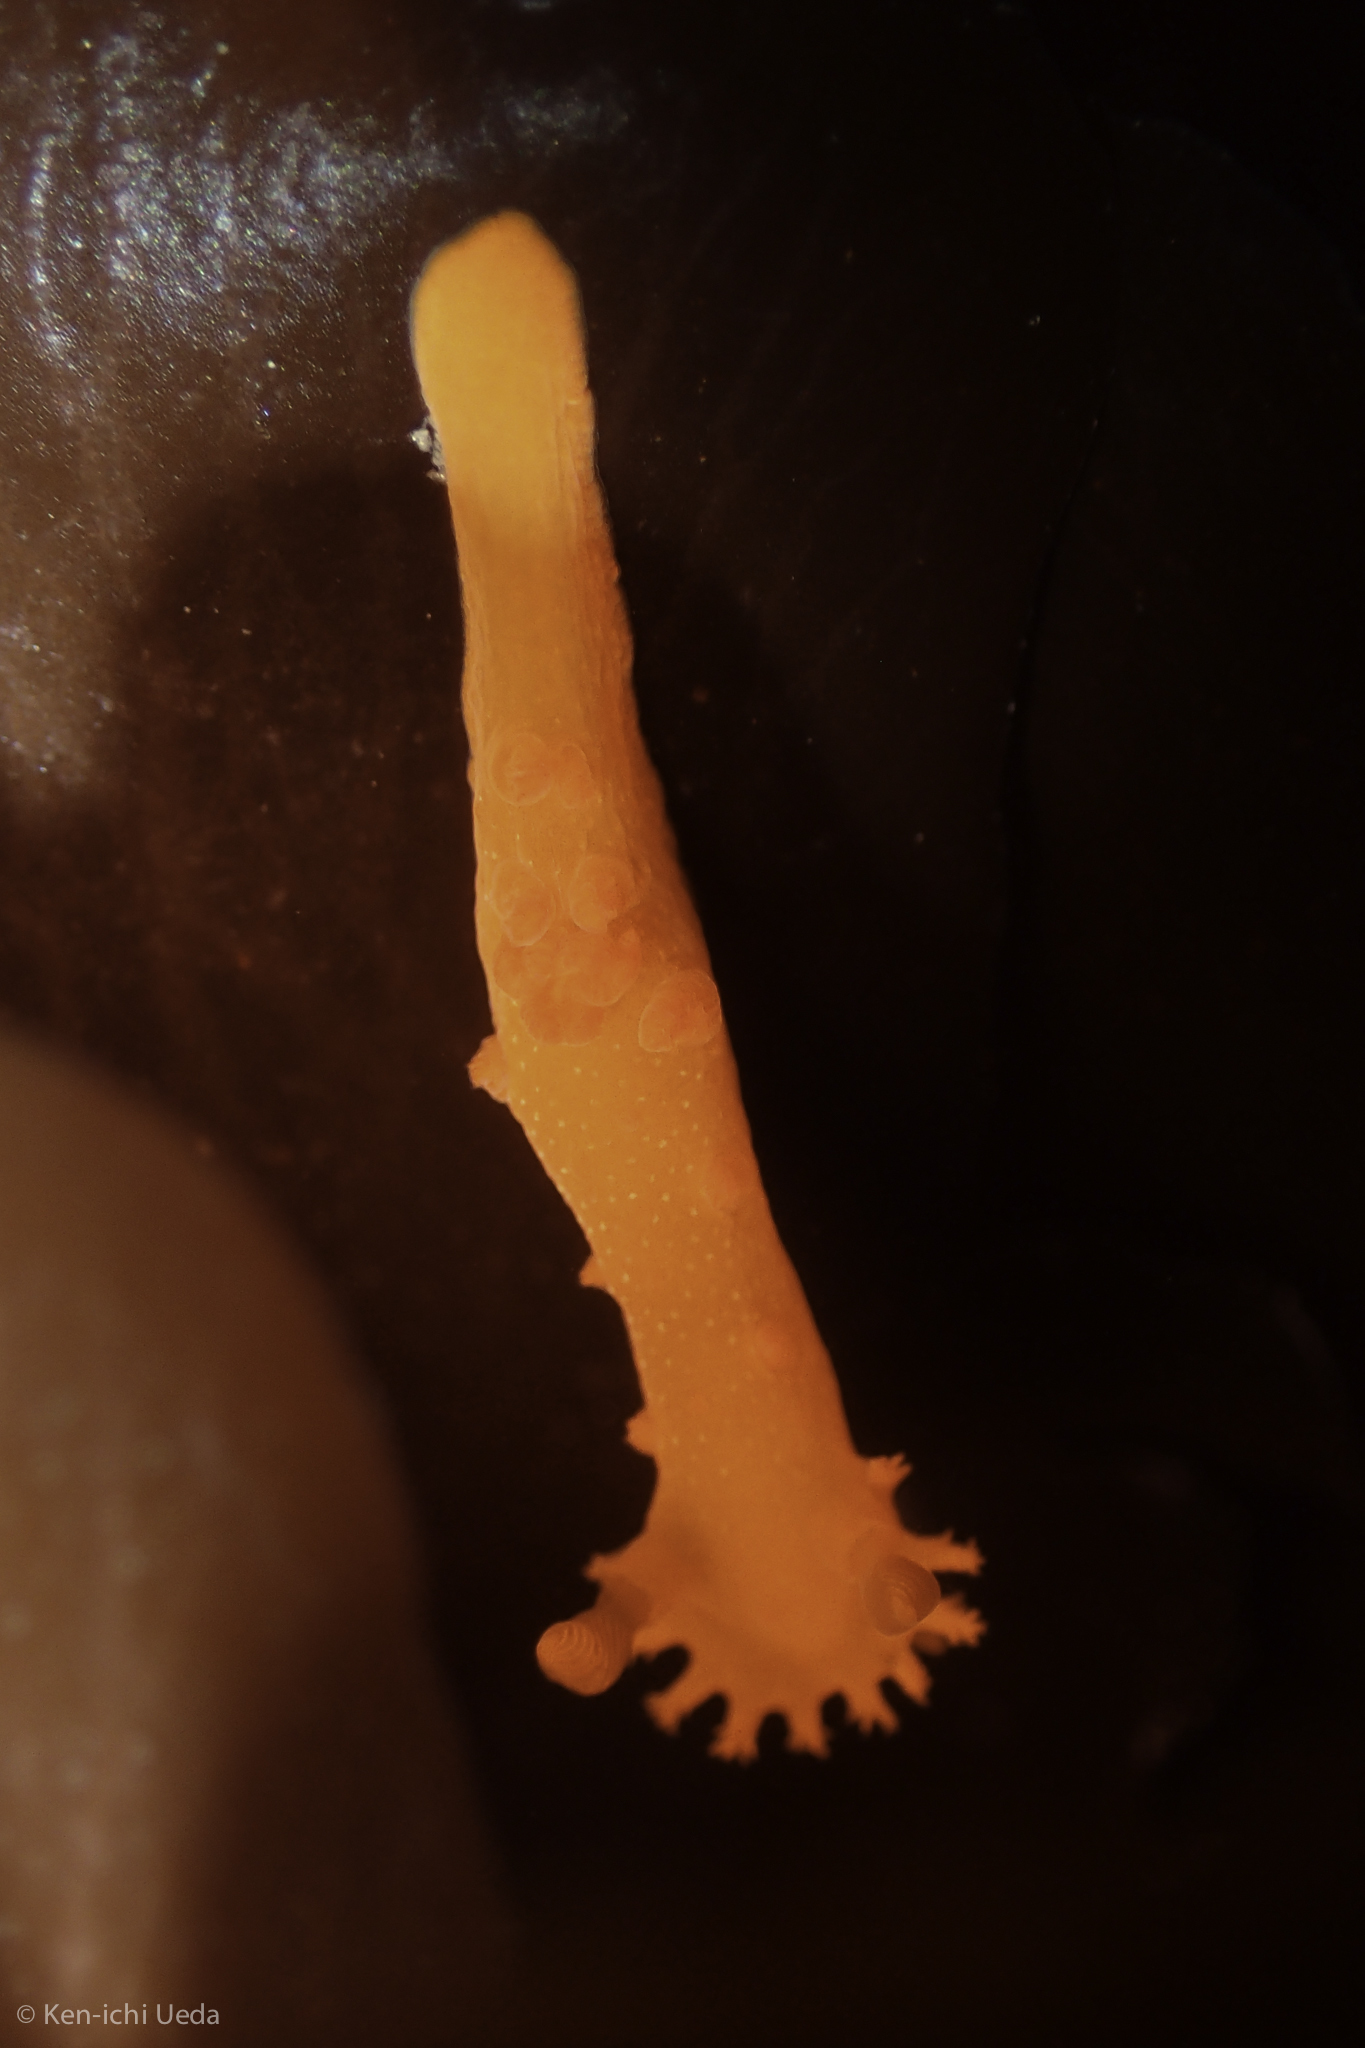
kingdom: Animalia
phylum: Mollusca
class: Gastropoda
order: Nudibranchia
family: Polyceridae
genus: Triopha
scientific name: Triopha maculata
